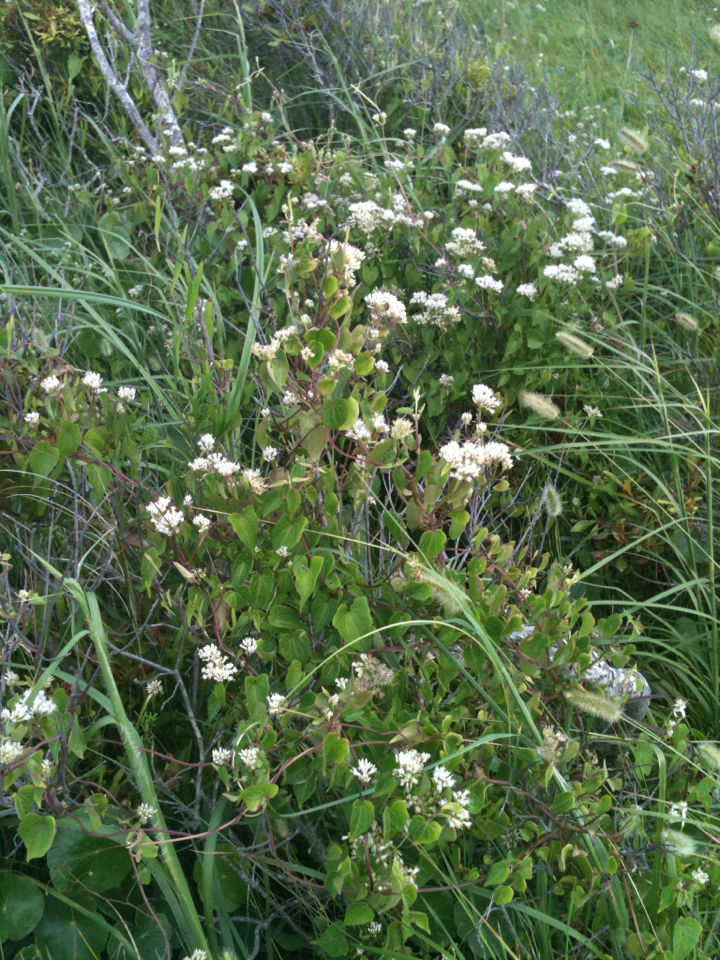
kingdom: Plantae
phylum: Tracheophyta
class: Magnoliopsida
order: Asterales
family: Asteraceae
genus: Mikania
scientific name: Mikania scandens
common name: Climbing hempvine
